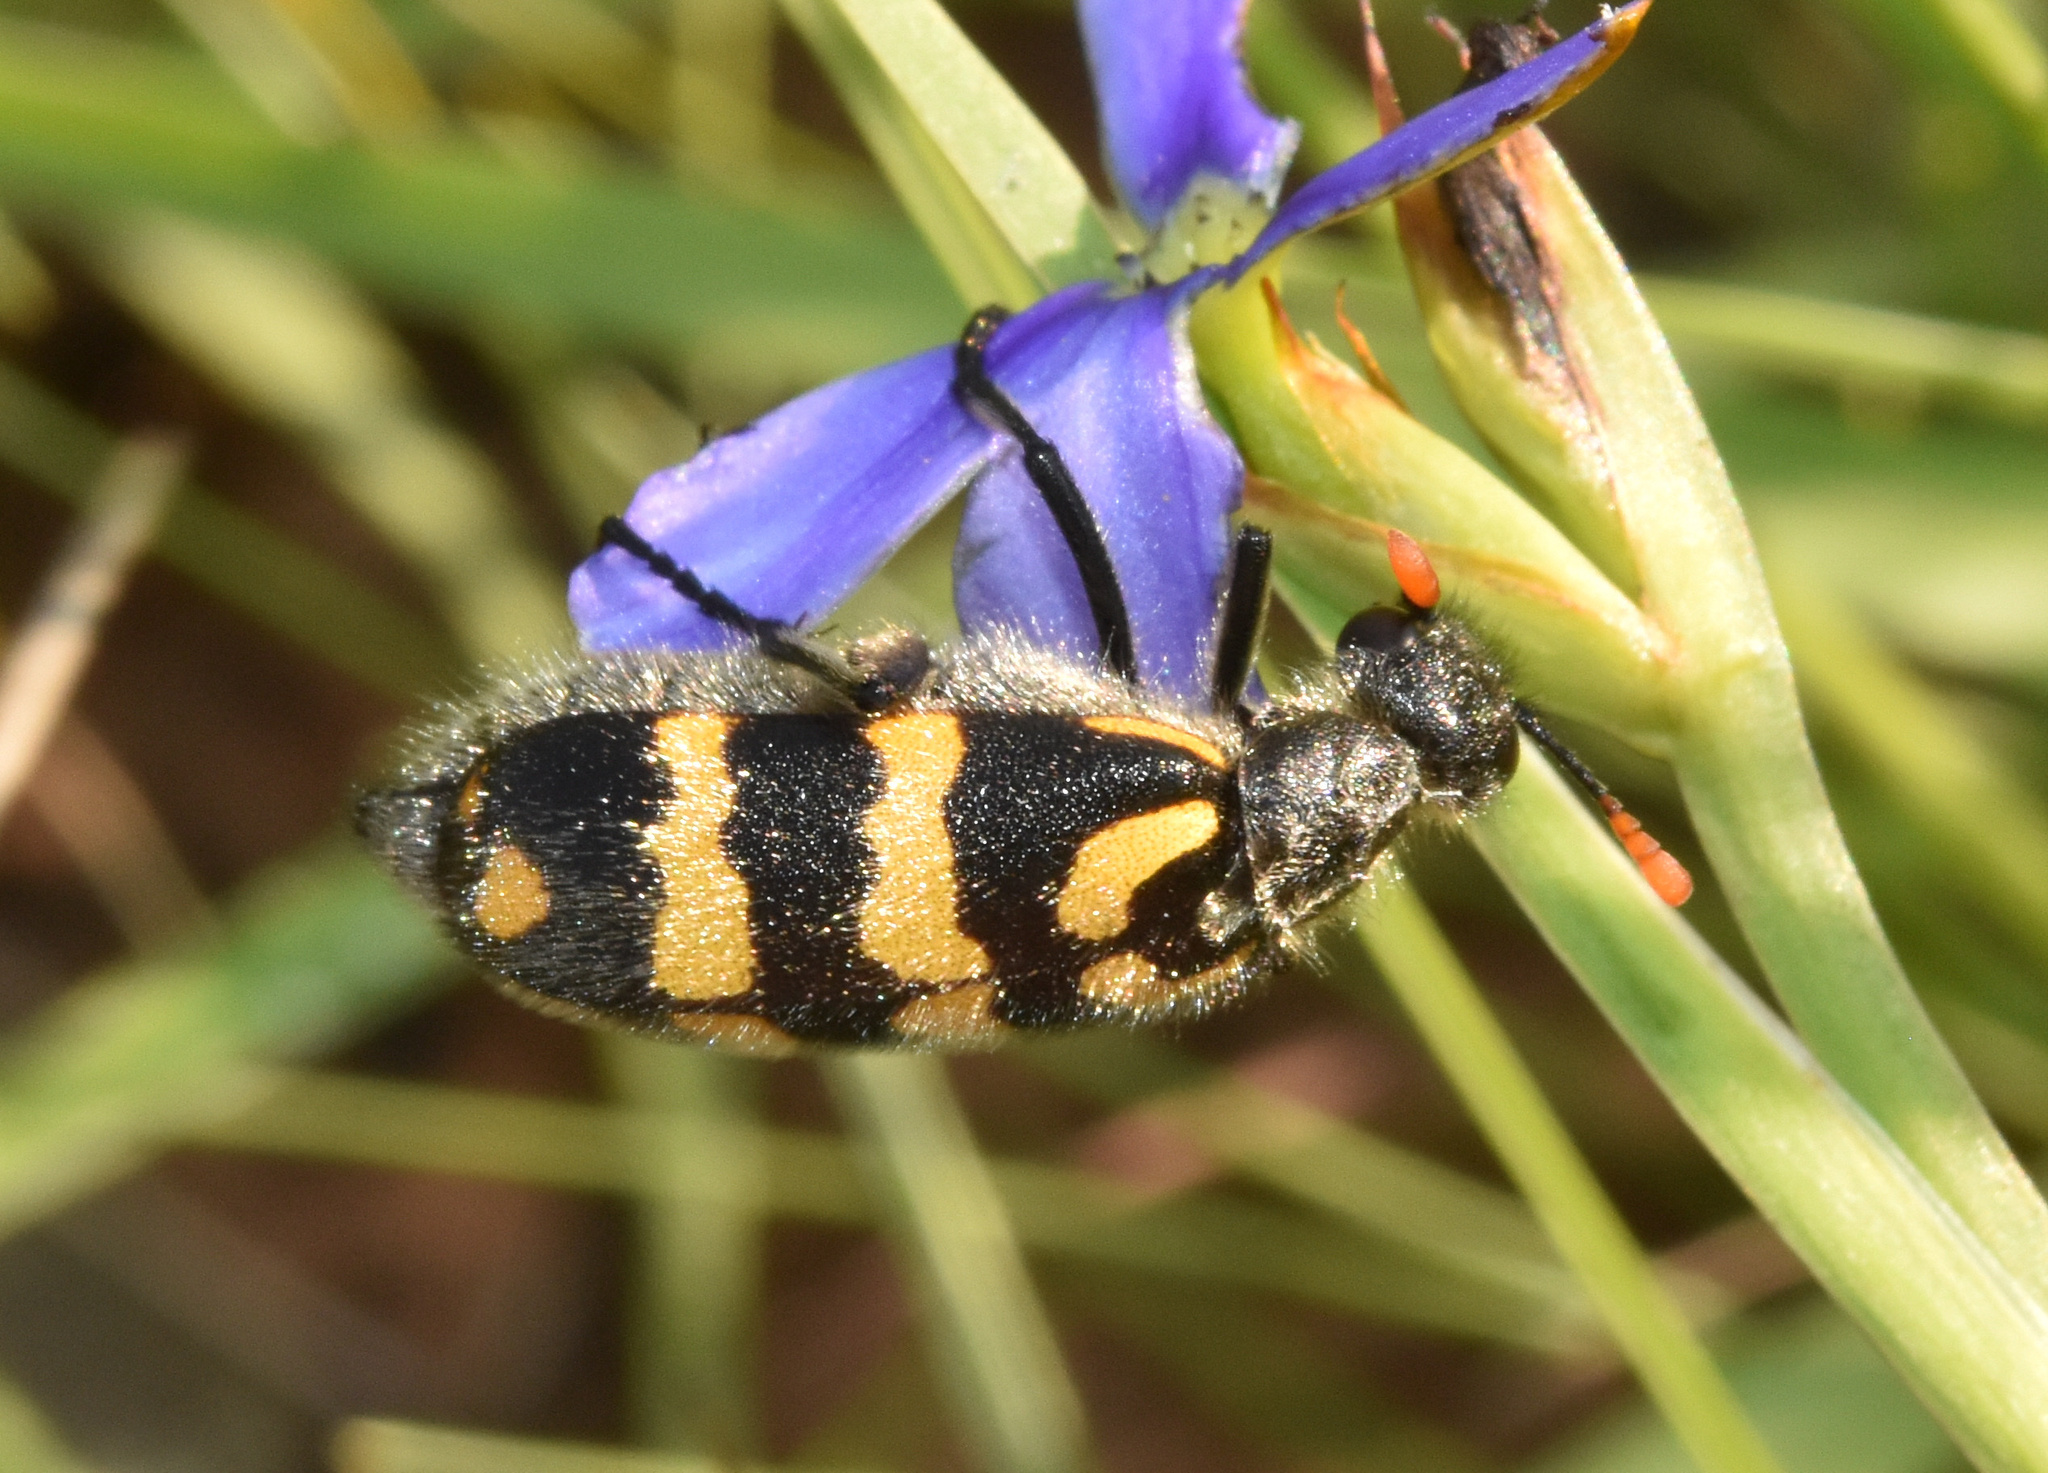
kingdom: Animalia
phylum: Arthropoda
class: Insecta
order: Coleoptera
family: Meloidae
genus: Hycleus
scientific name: Hycleus pilosus
